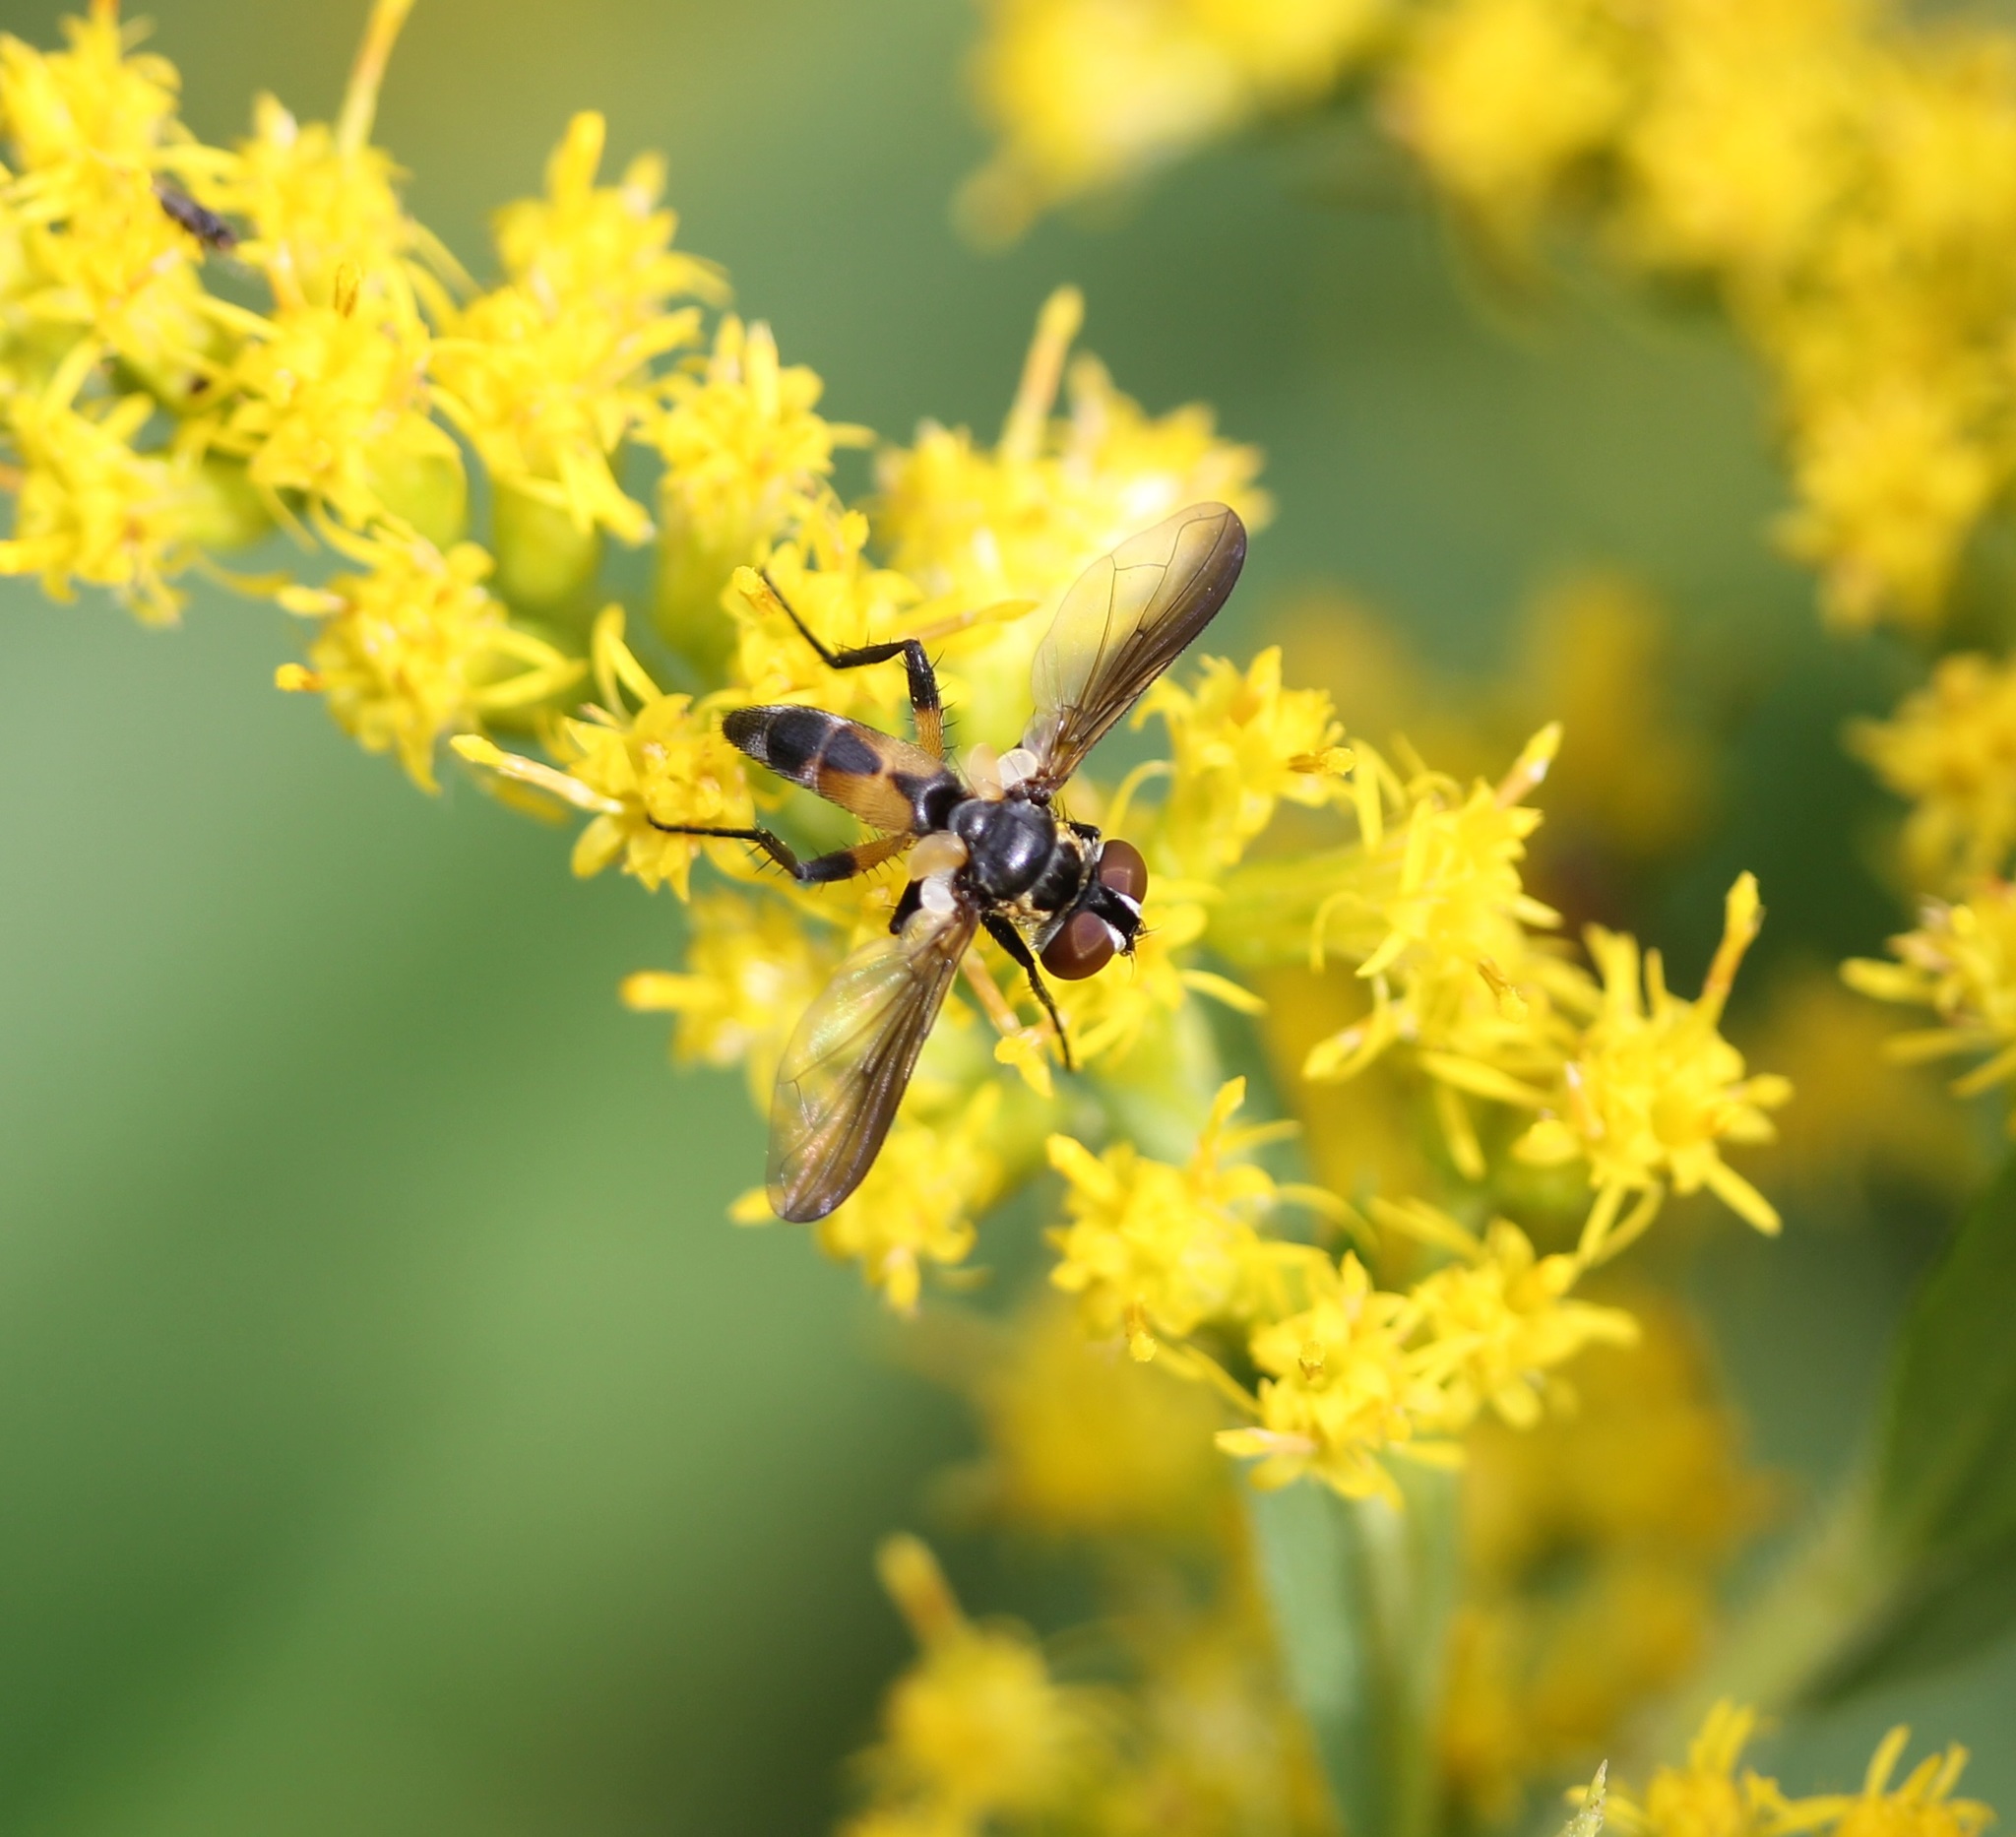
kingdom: Animalia
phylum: Arthropoda
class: Insecta
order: Diptera
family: Tachinidae
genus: Xanthomelanodes
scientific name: Xanthomelanodes arcuatus
